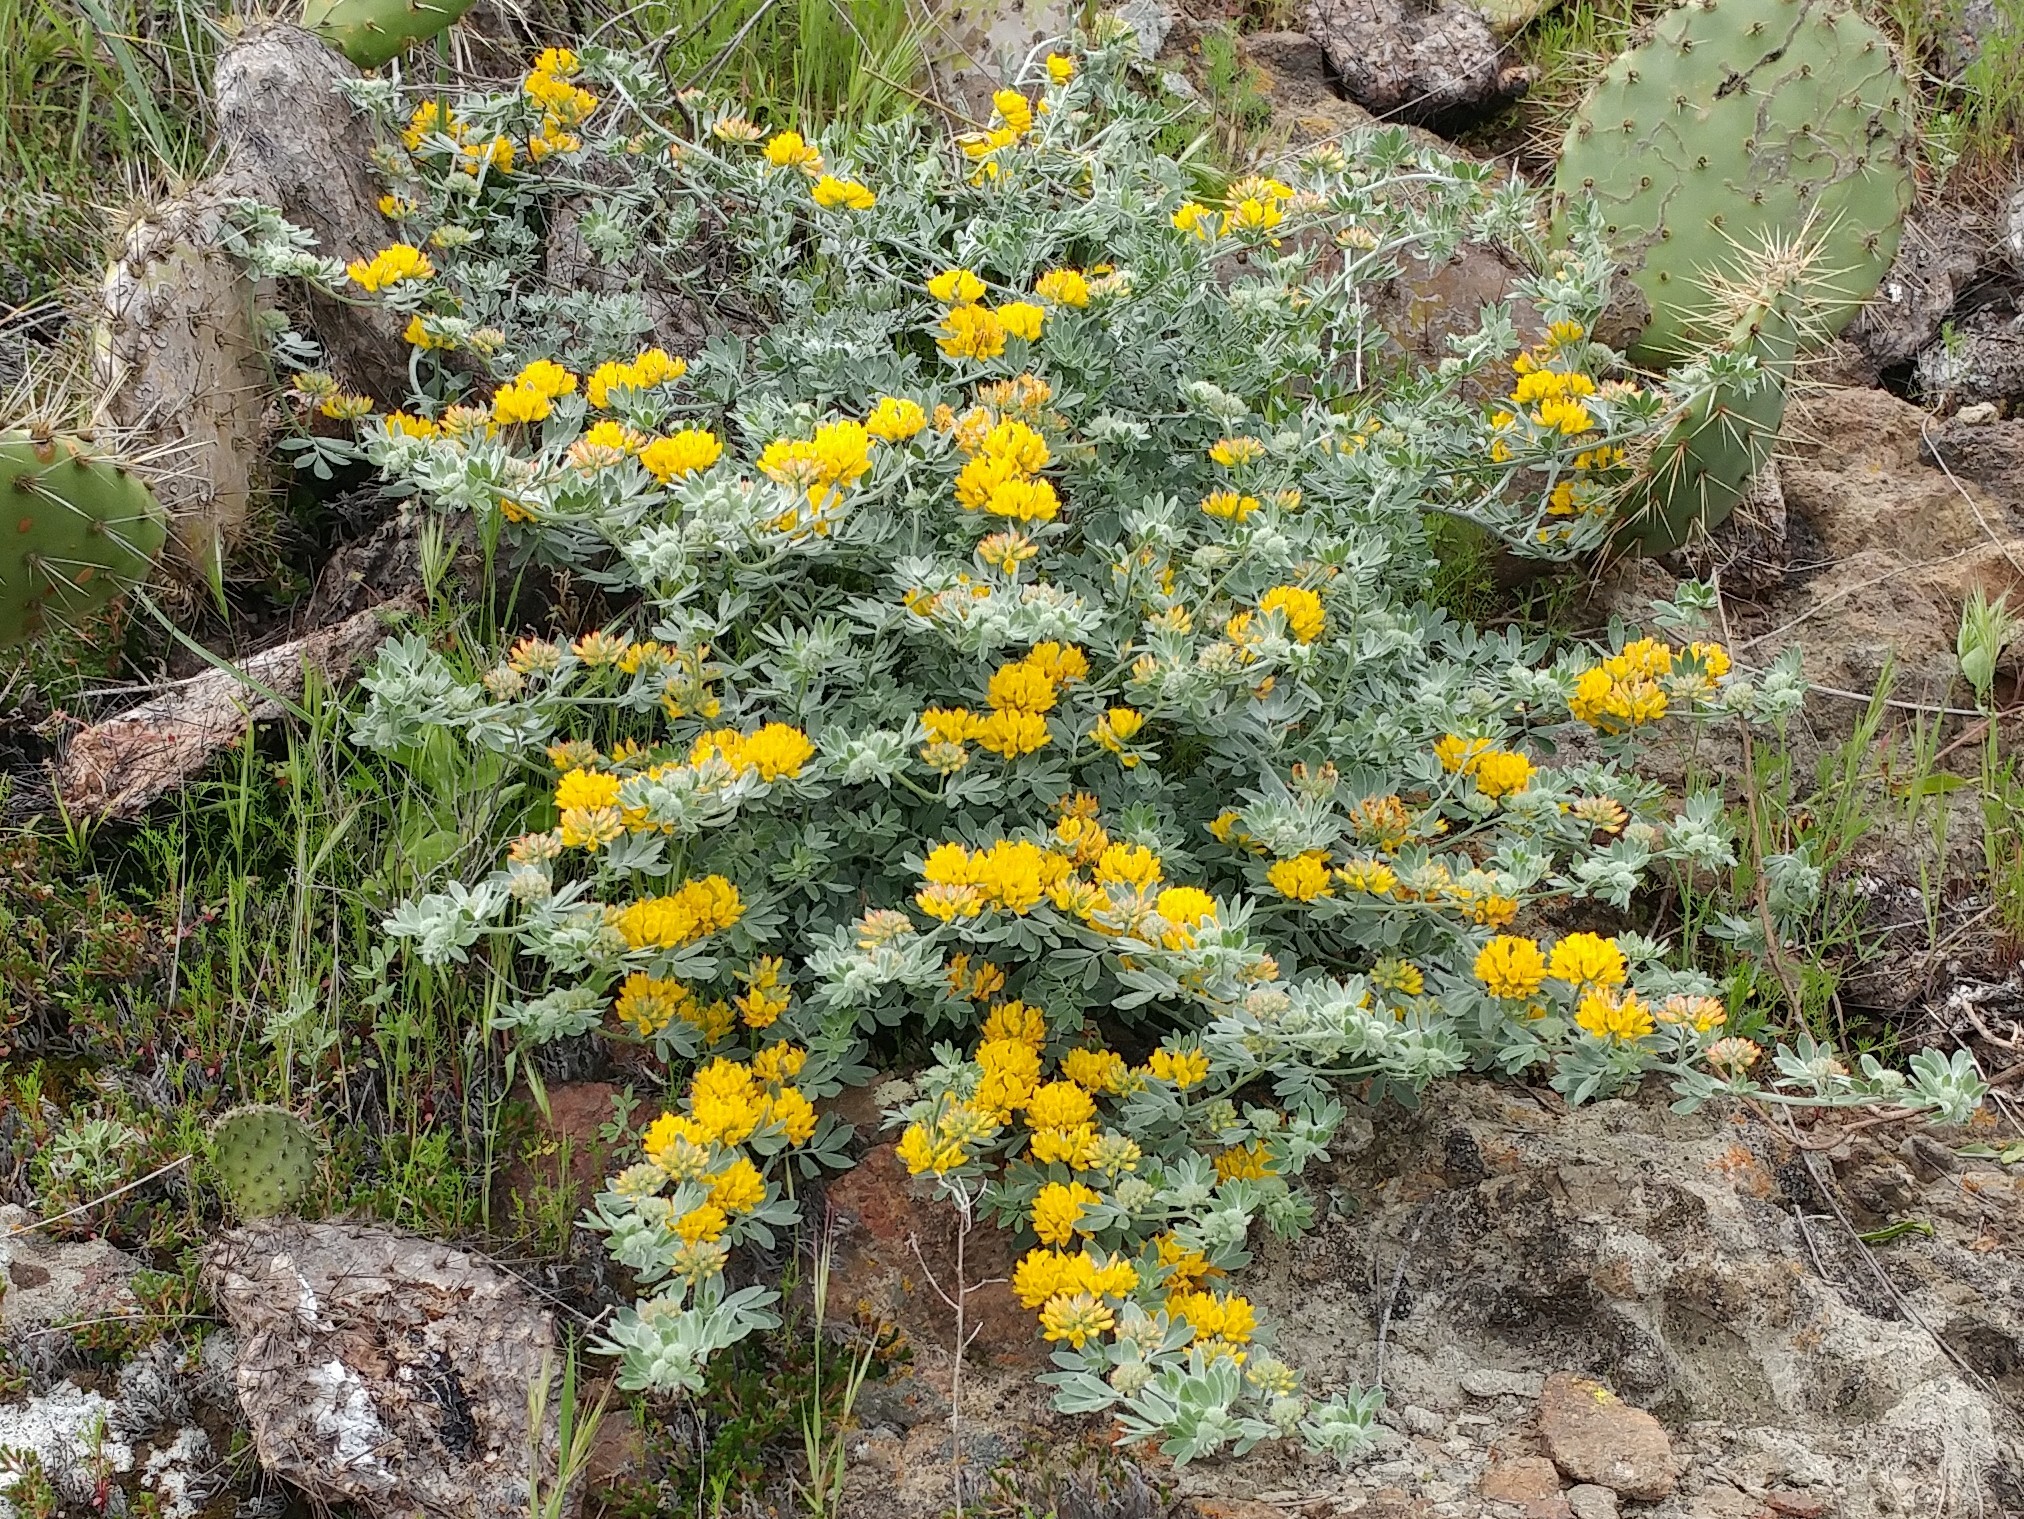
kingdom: Plantae
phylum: Tracheophyta
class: Magnoliopsida
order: Fabales
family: Fabaceae
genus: Acmispon
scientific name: Acmispon argophyllus
